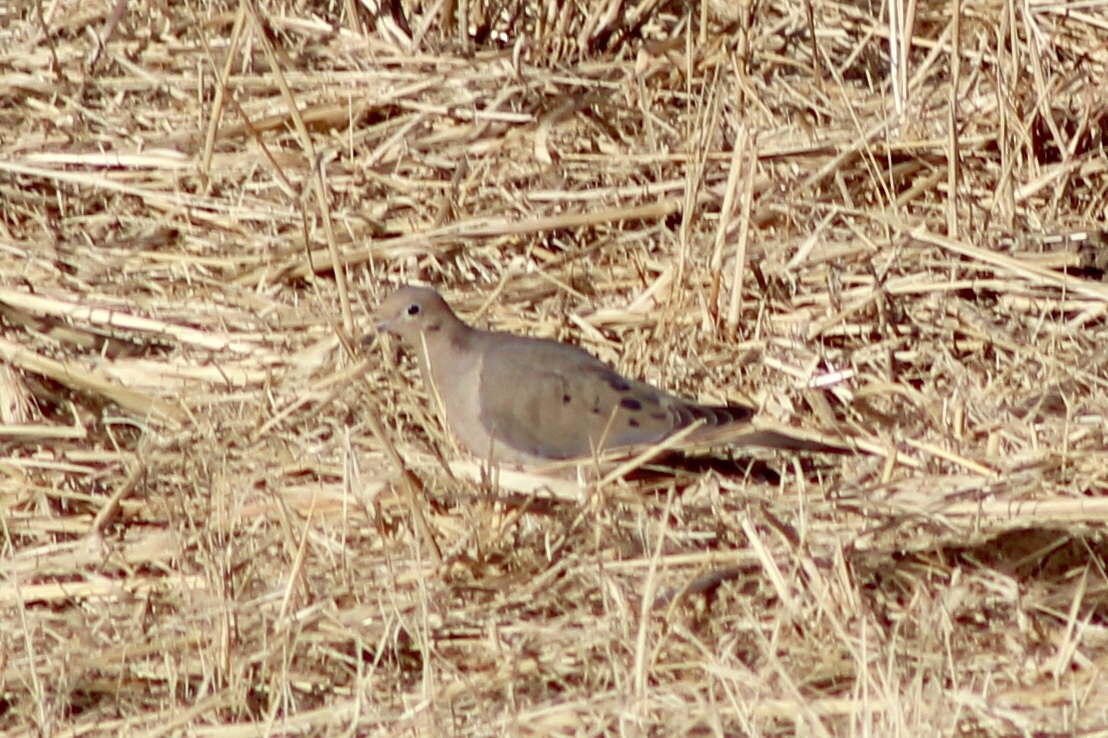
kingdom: Animalia
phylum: Chordata
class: Aves
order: Columbiformes
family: Columbidae
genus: Zenaida
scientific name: Zenaida macroura
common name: Mourning dove
